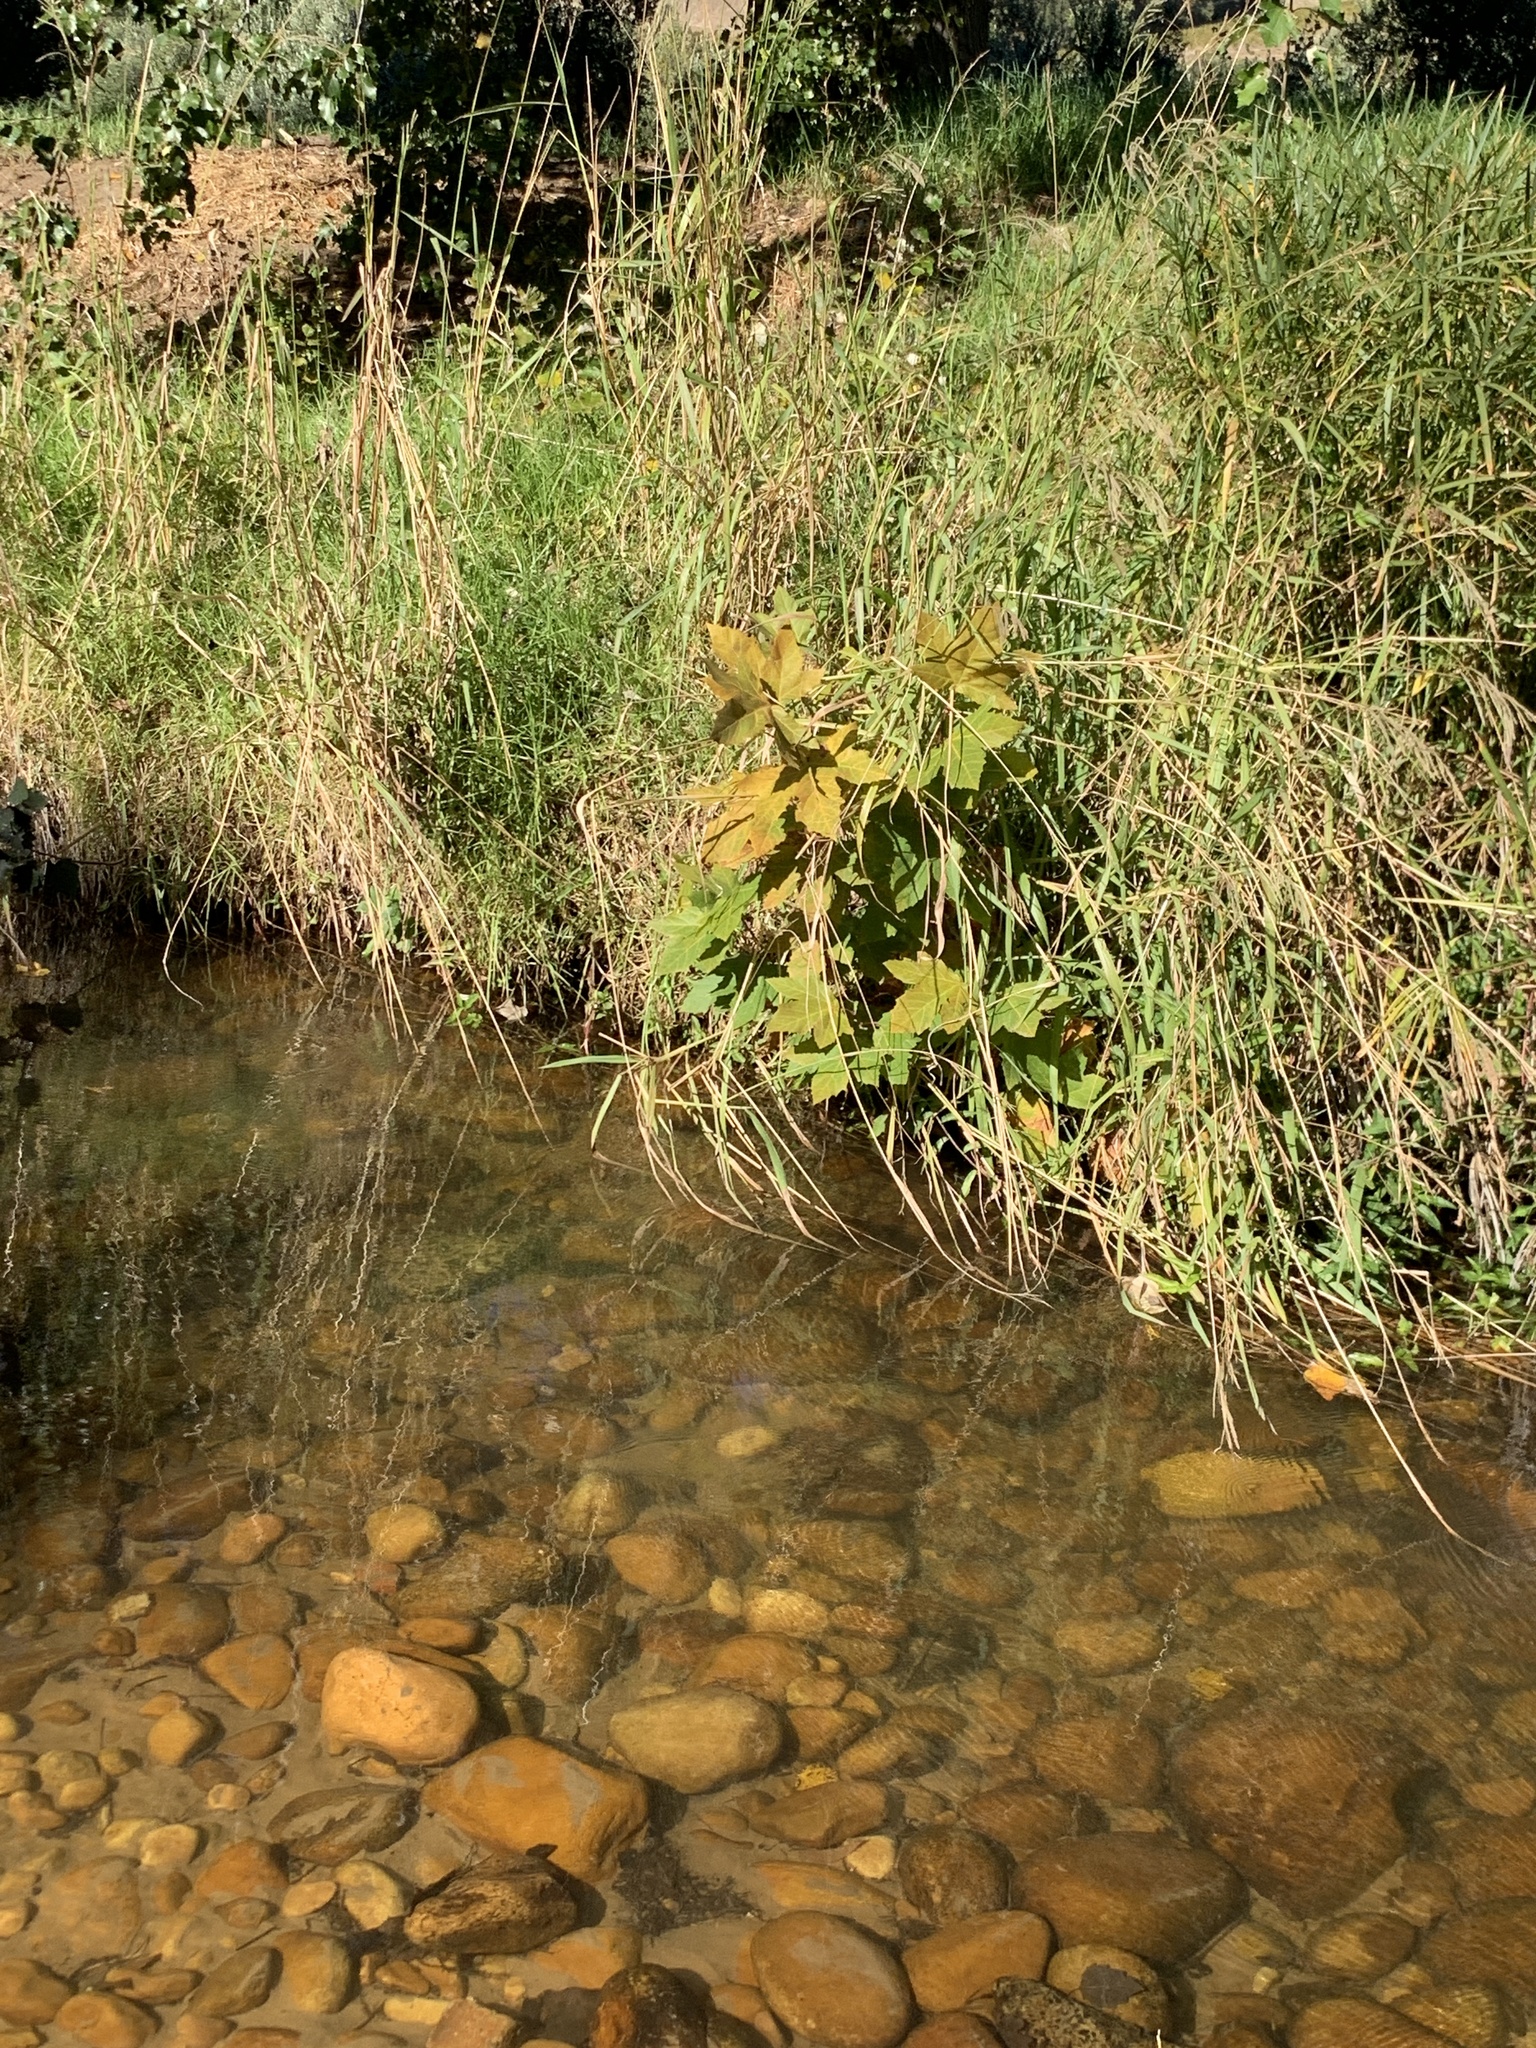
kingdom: Plantae
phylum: Tracheophyta
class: Magnoliopsida
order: Proteales
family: Platanaceae
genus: Platanus
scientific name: Platanus hispanica
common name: London plane
